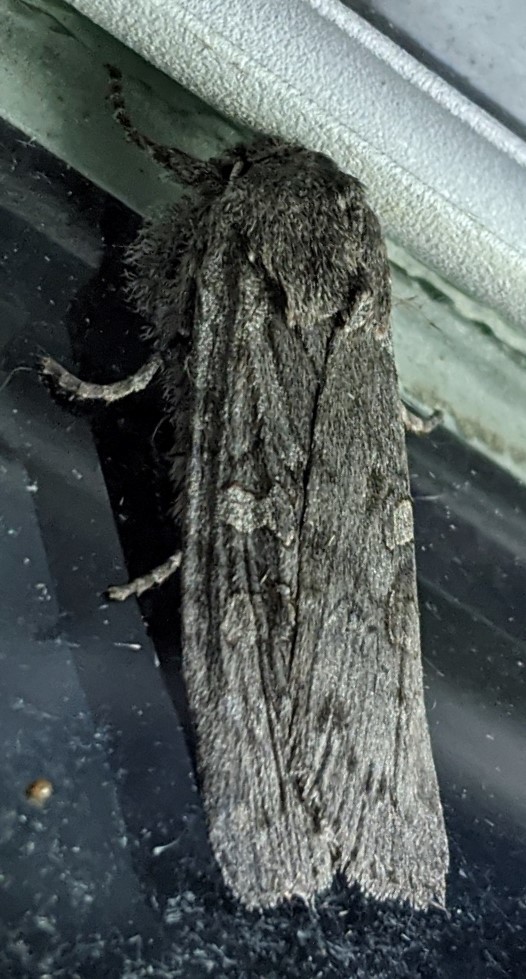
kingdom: Animalia
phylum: Arthropoda
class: Insecta
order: Lepidoptera
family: Noctuidae
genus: Lithophane
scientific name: Lithophane grotei
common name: Grote's pinion moth
